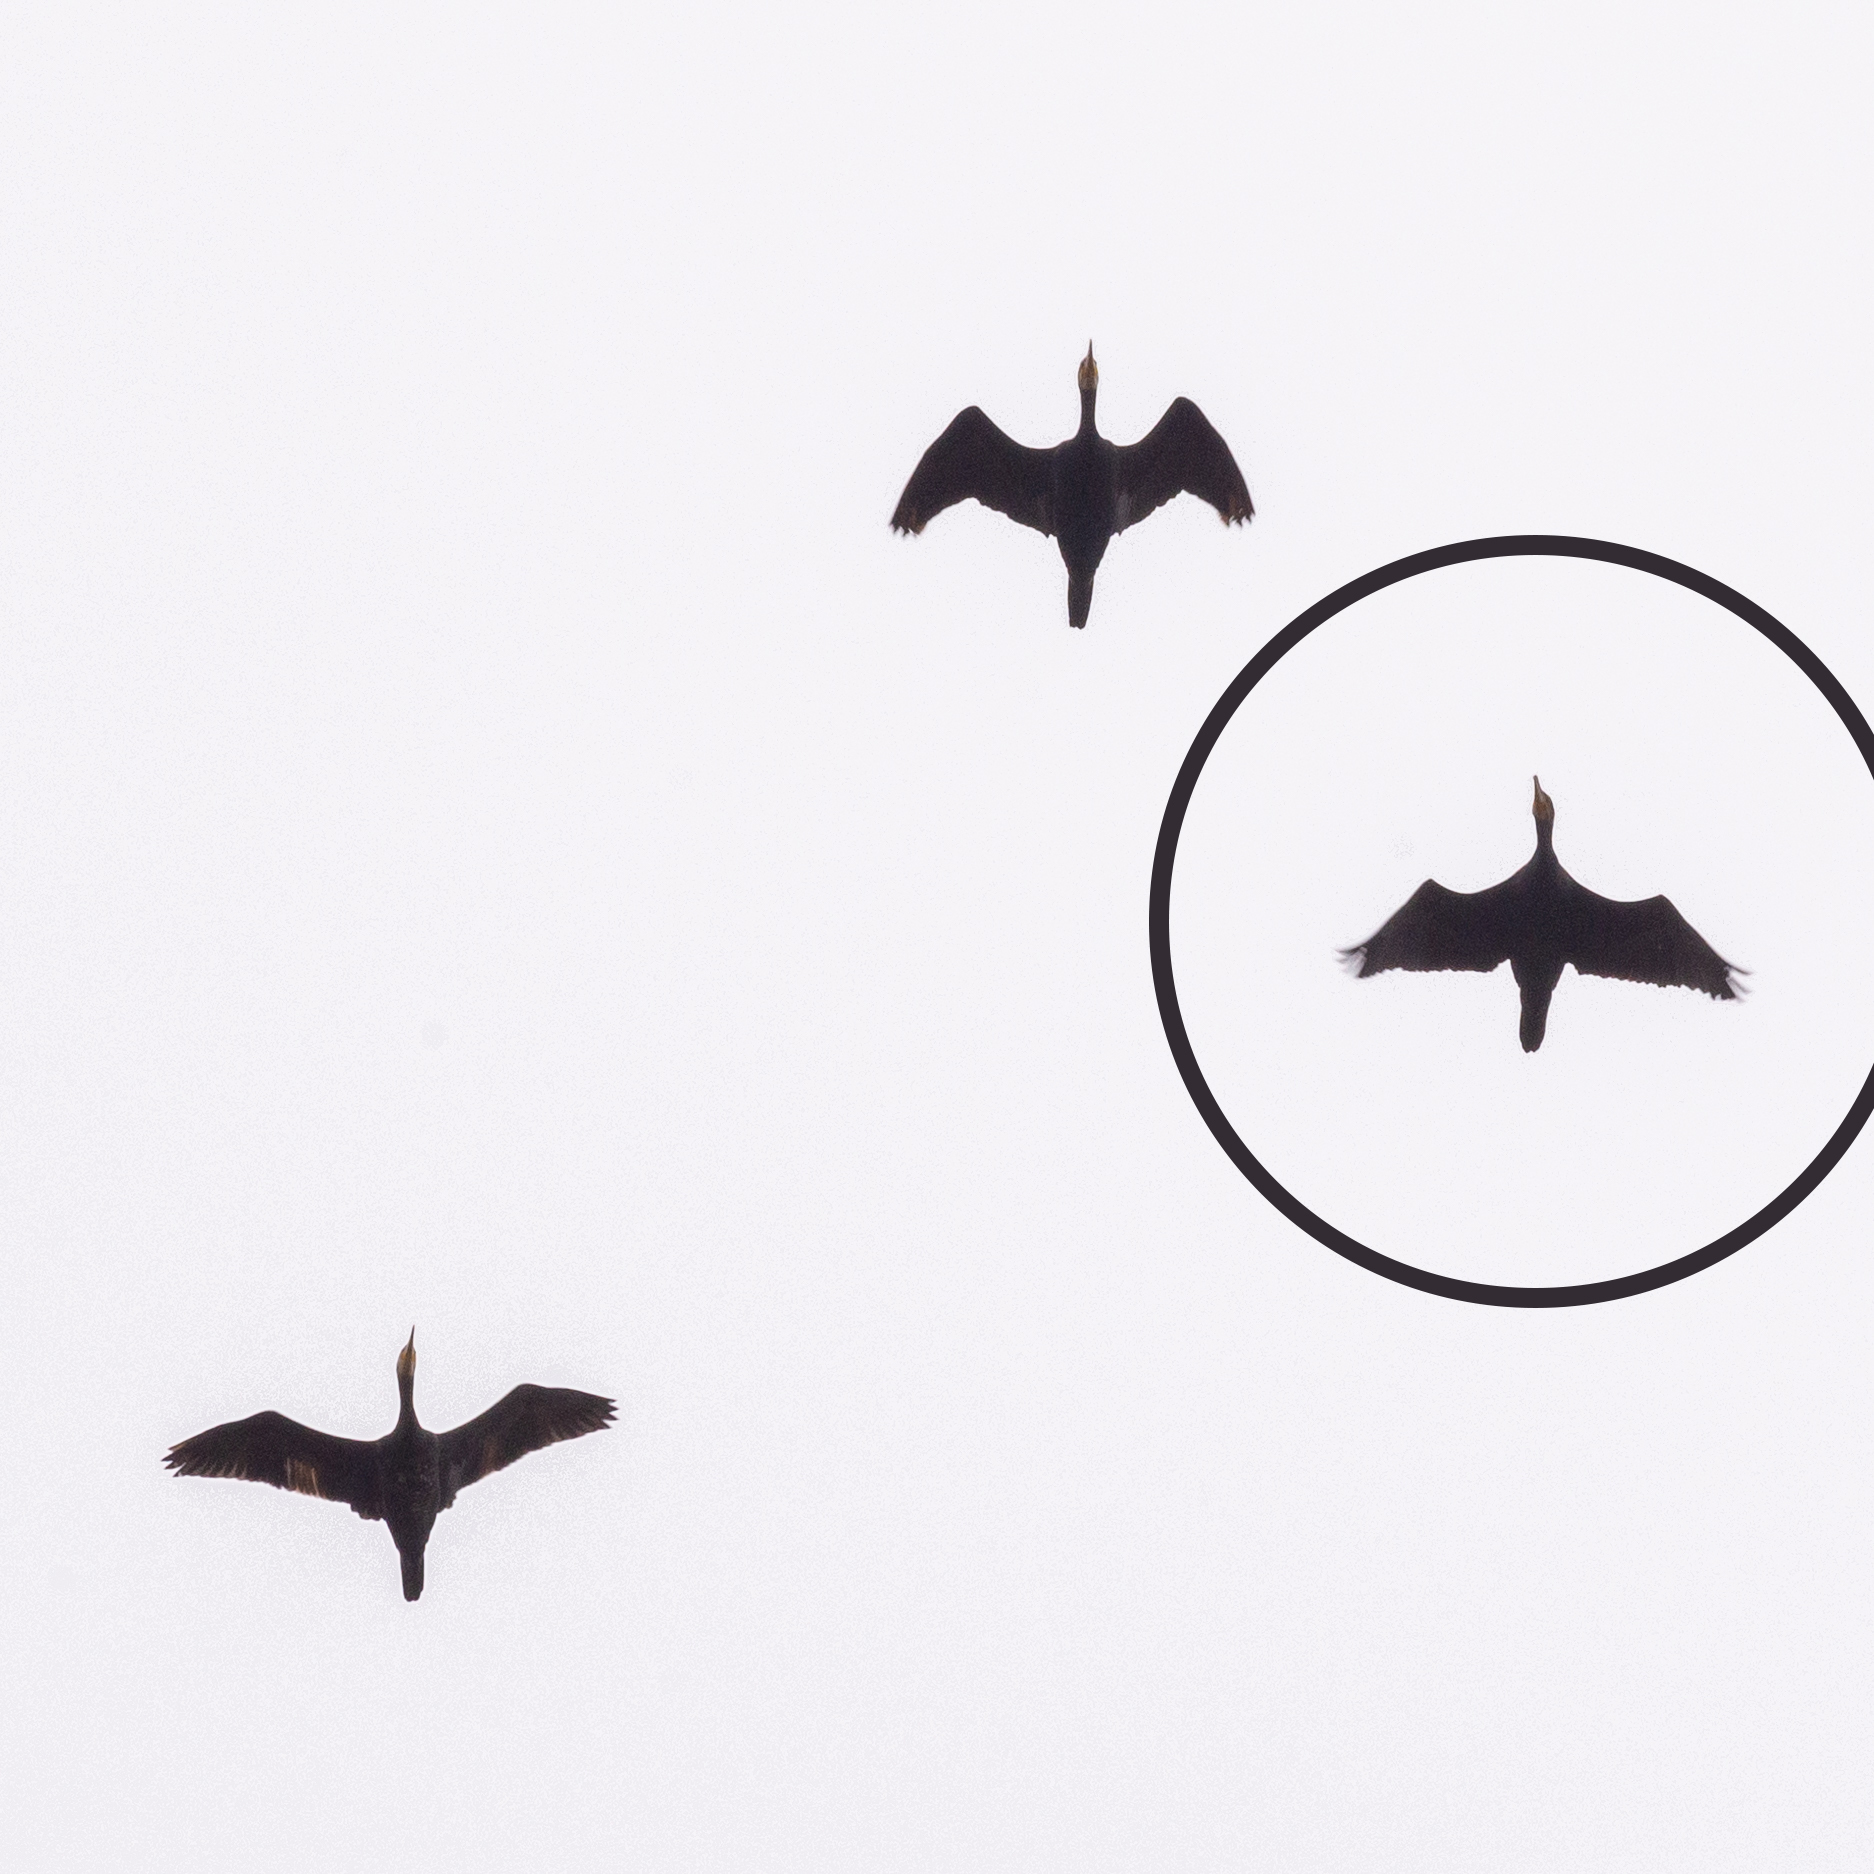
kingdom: Animalia
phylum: Chordata
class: Aves
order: Suliformes
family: Phalacrocoracidae
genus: Phalacrocorax
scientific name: Phalacrocorax carbo
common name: Great cormorant
